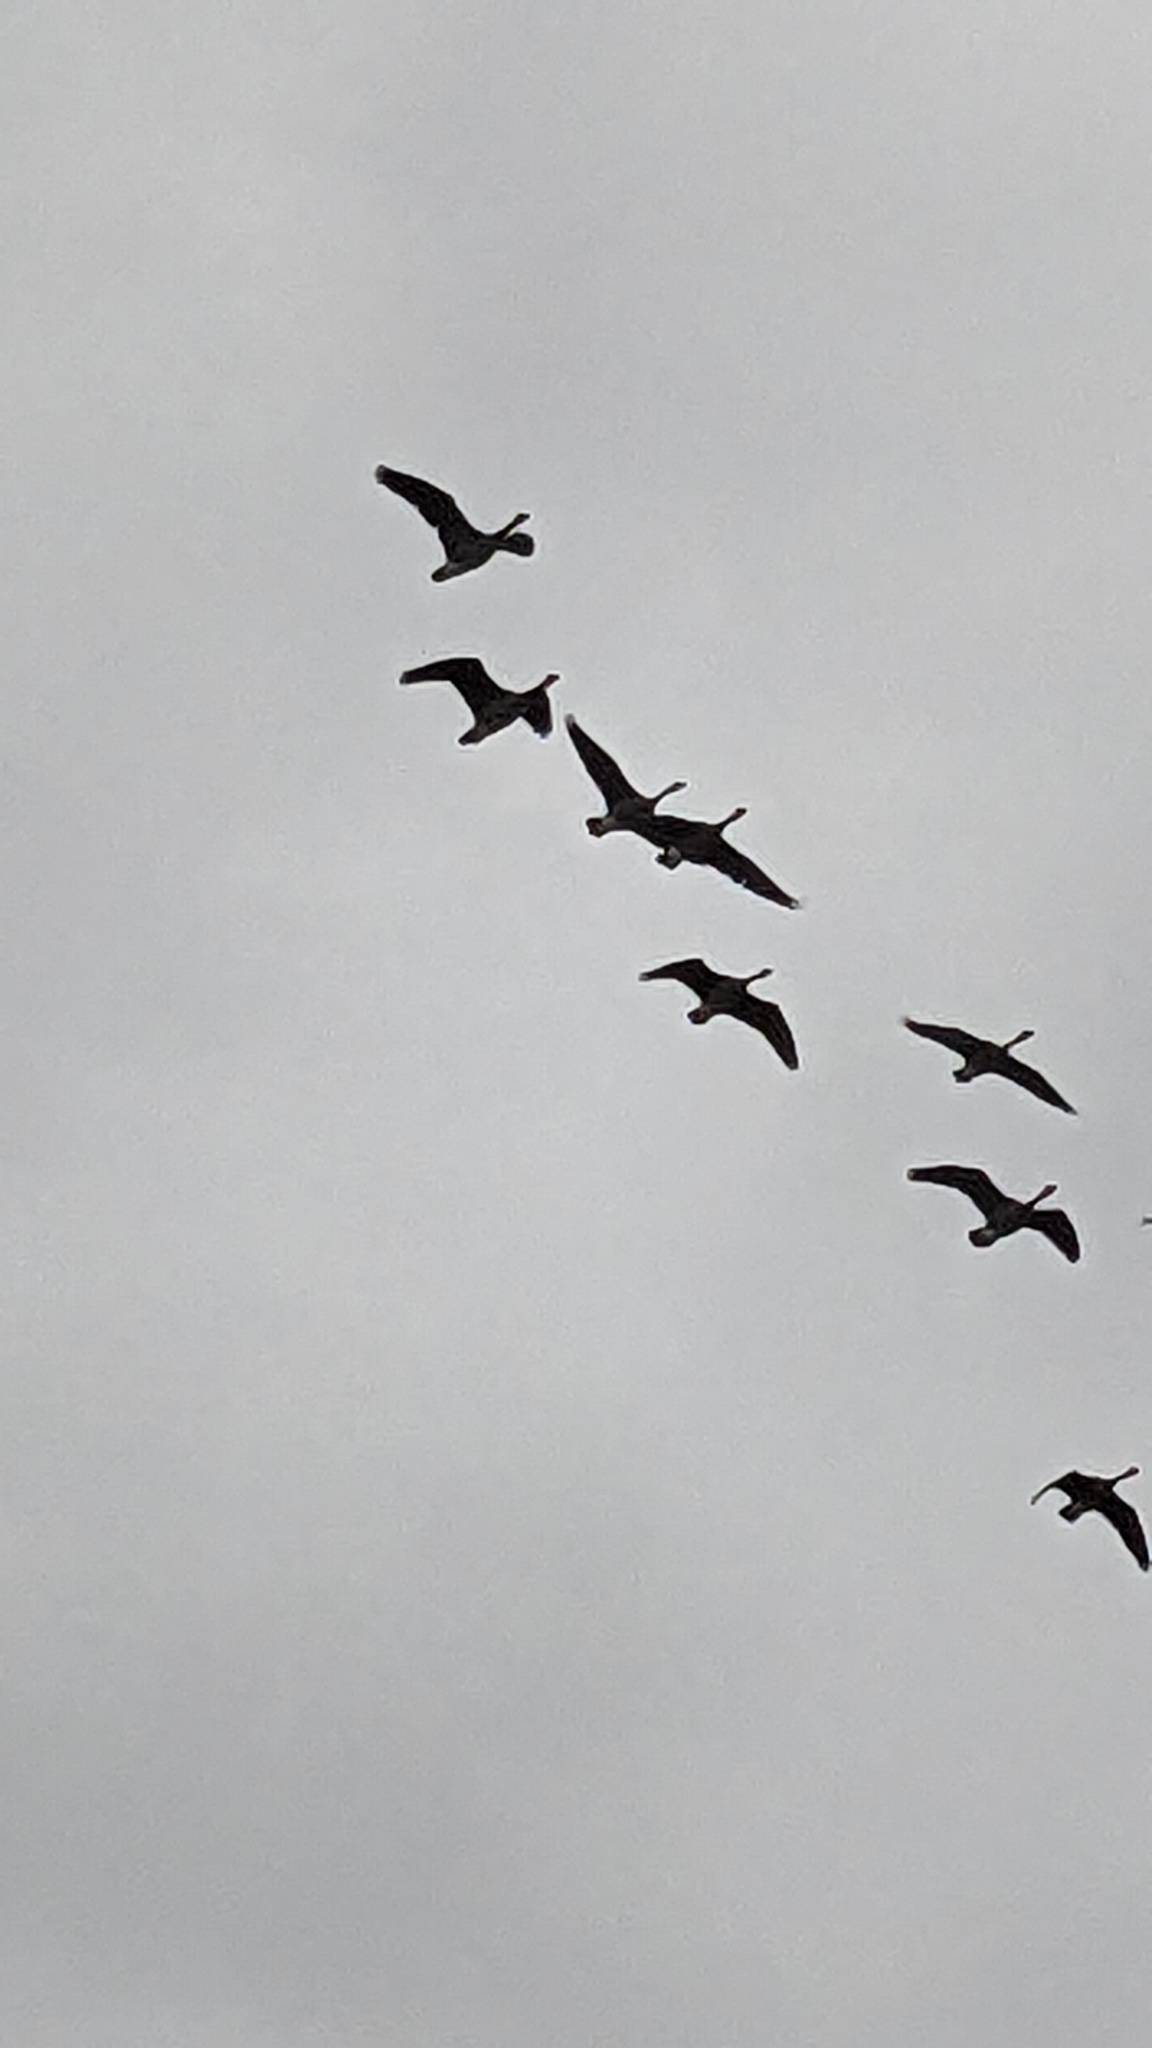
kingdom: Animalia
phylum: Chordata
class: Aves
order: Anseriformes
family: Anatidae
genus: Branta
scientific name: Branta canadensis
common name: Canada goose
